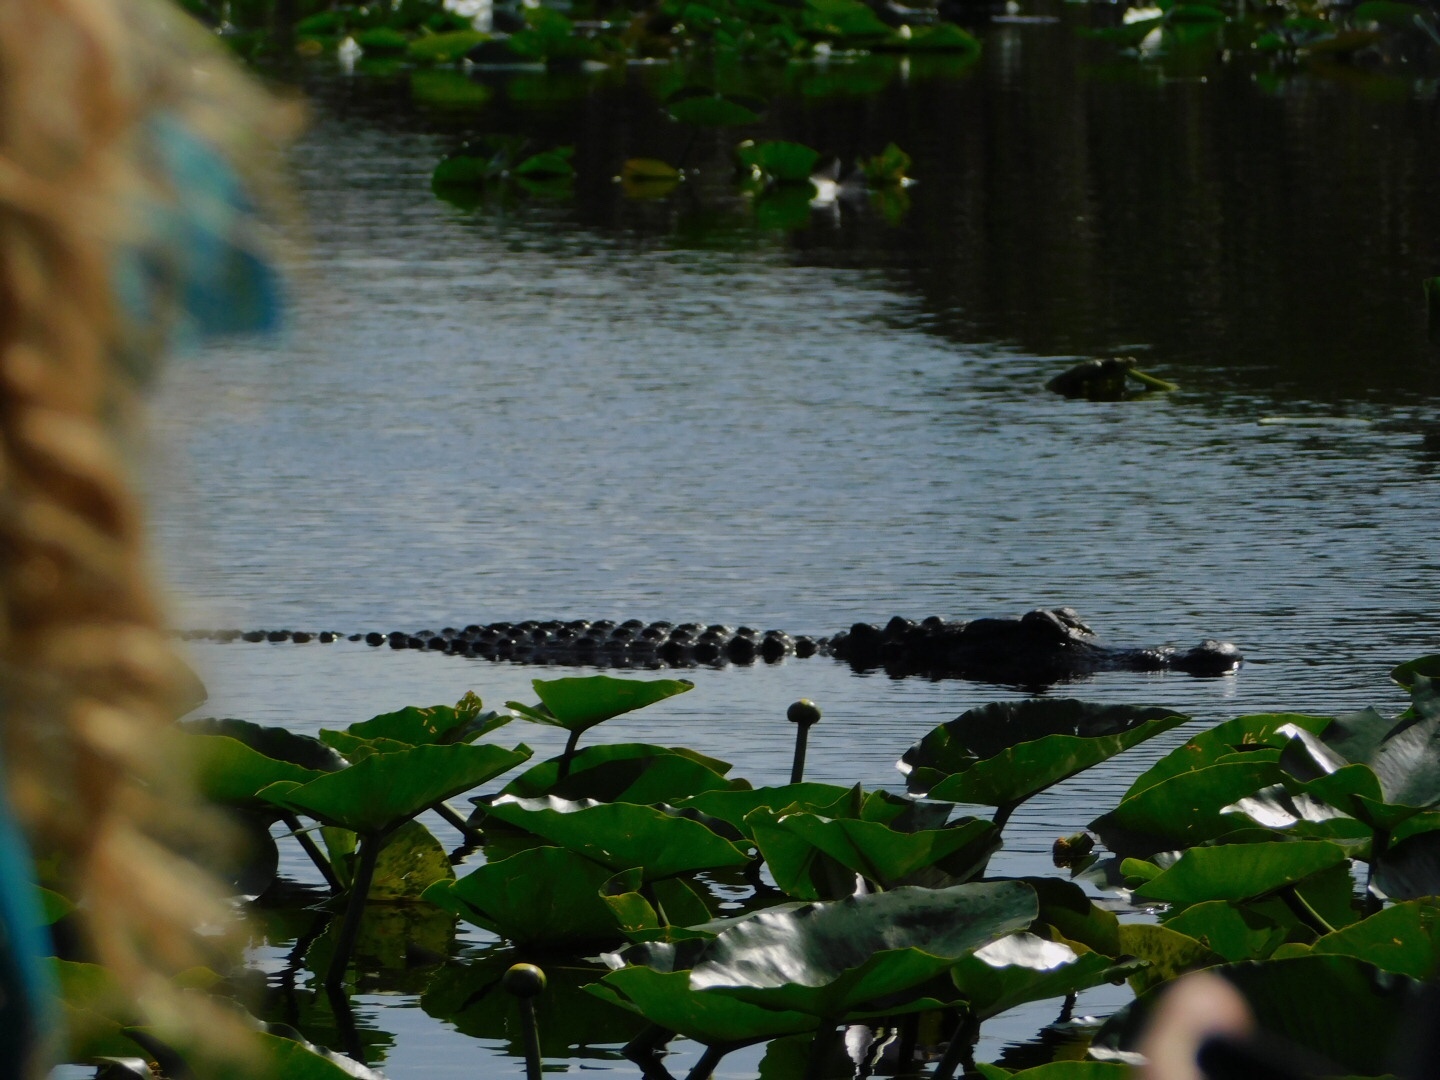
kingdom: Animalia
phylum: Chordata
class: Crocodylia
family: Alligatoridae
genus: Alligator
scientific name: Alligator mississippiensis
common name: American alligator
